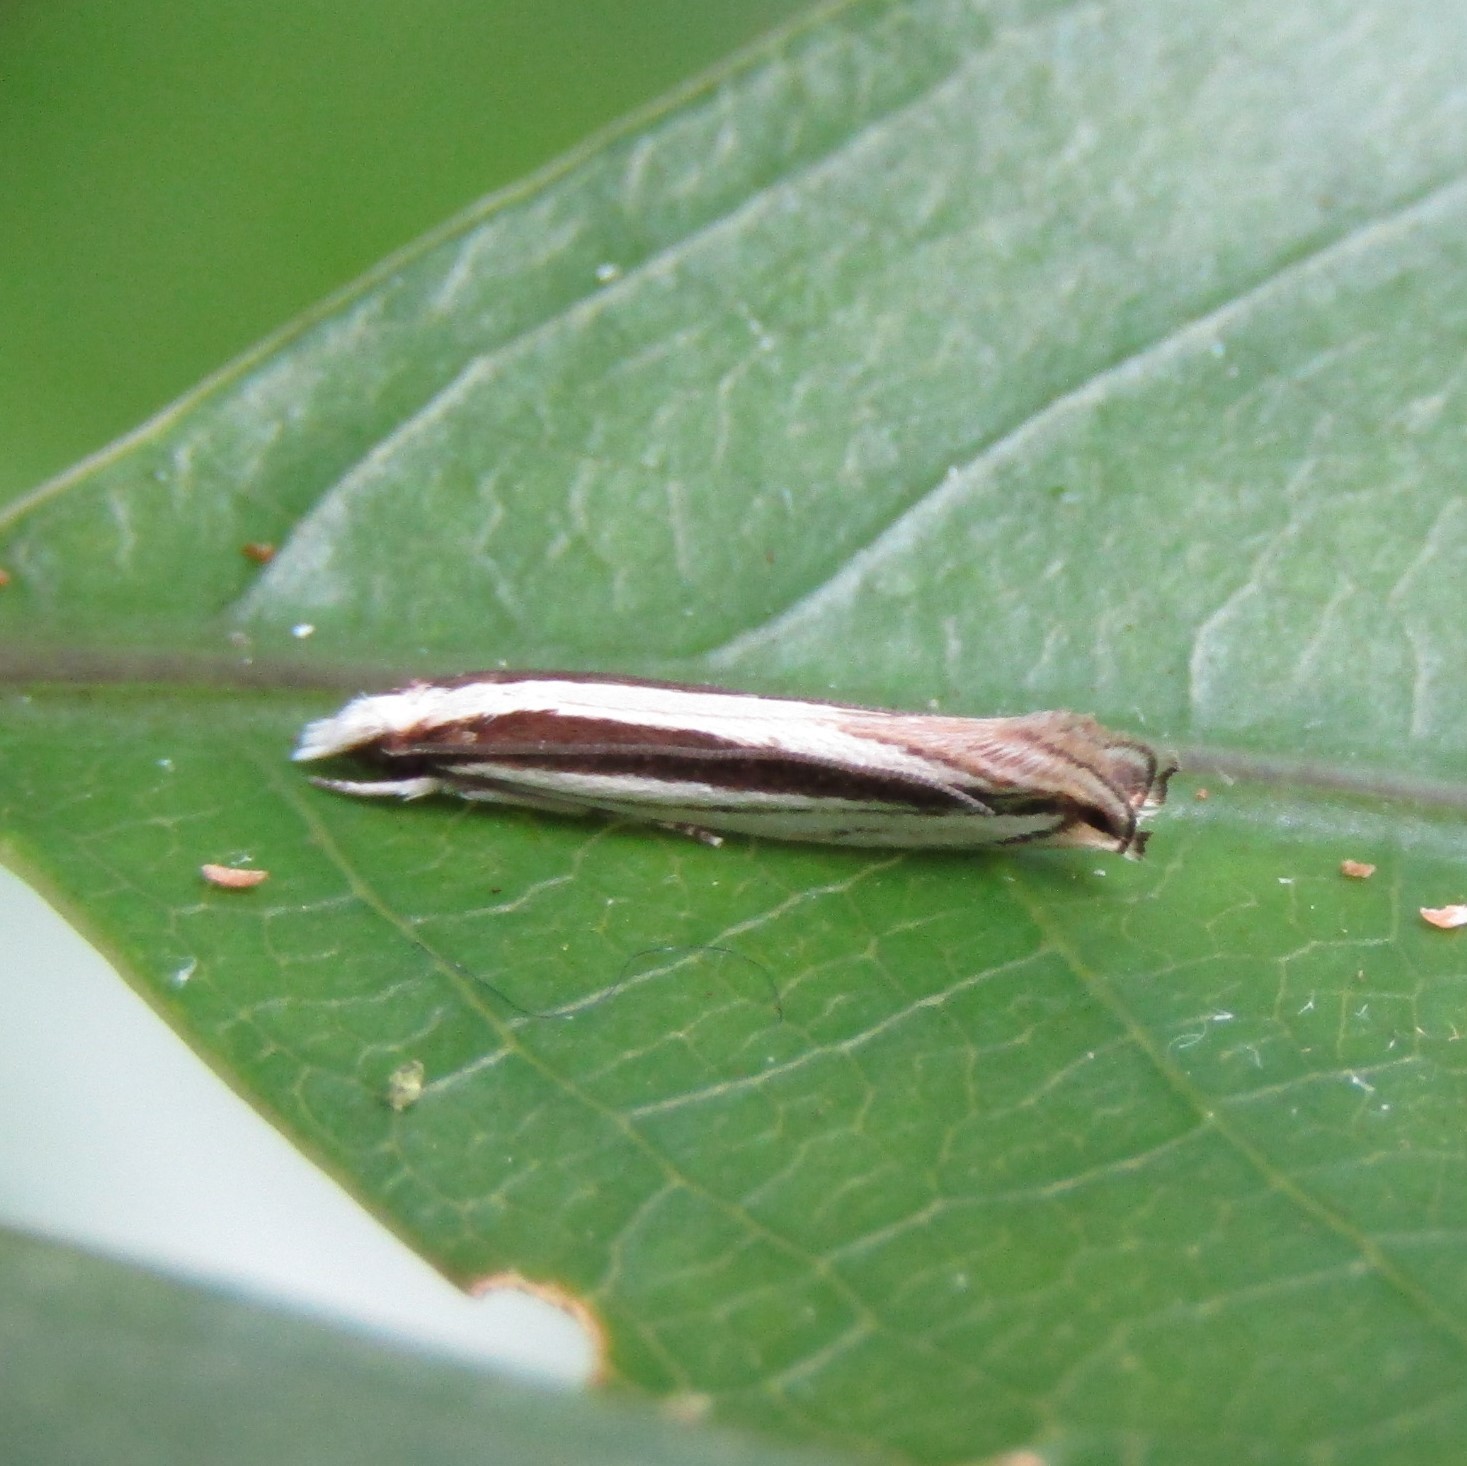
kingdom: Animalia
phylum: Arthropoda
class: Insecta
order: Lepidoptera
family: Tineidae
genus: Erechthias
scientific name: Erechthias stilbella
